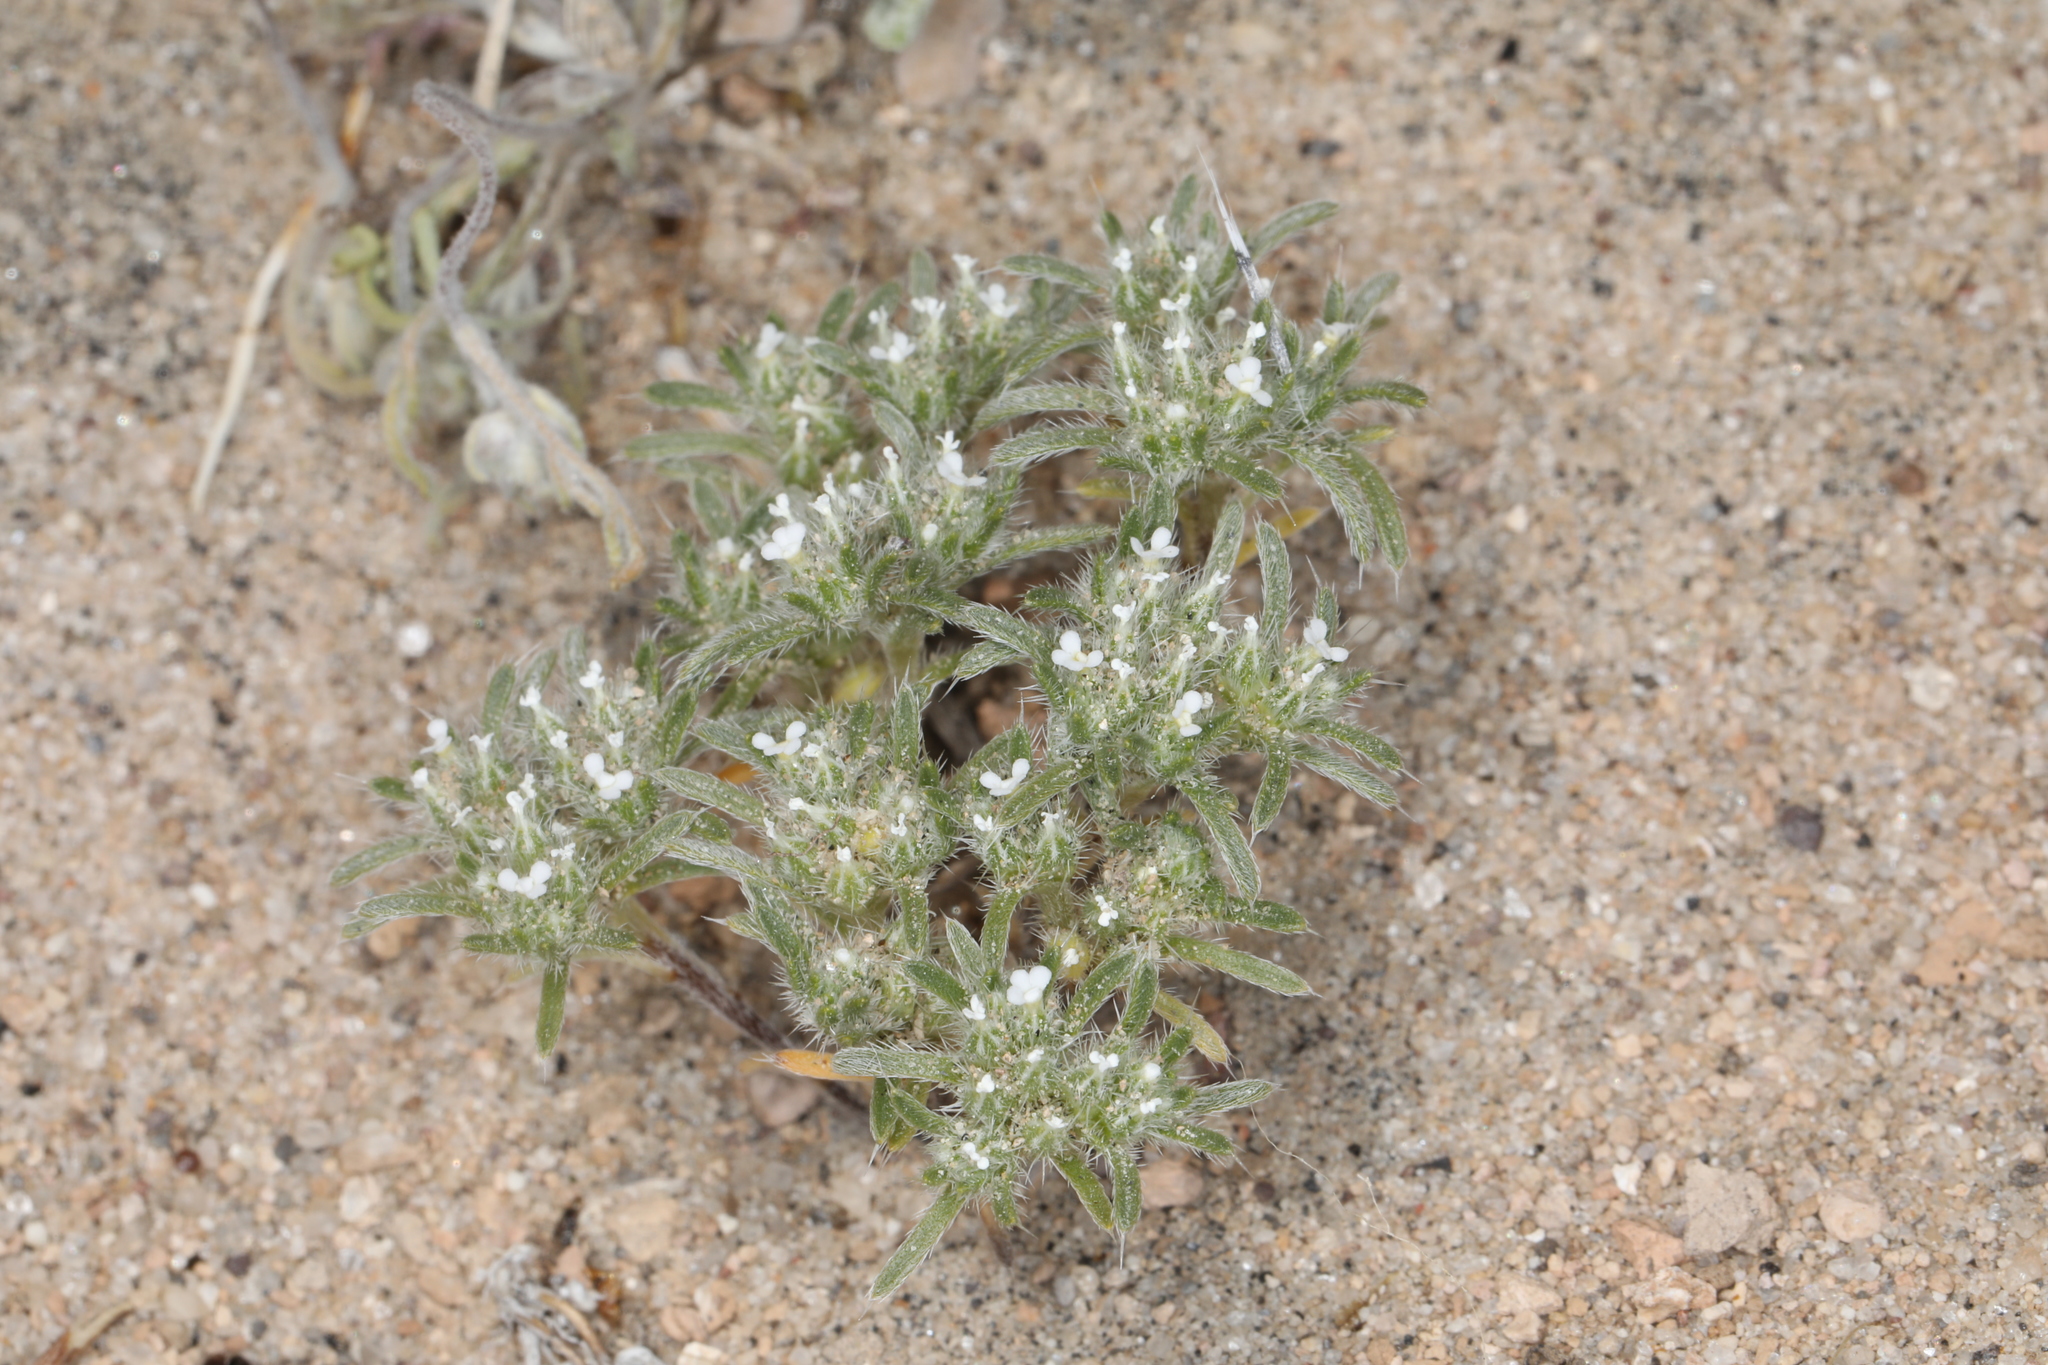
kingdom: Plantae
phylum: Tracheophyta
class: Magnoliopsida
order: Boraginales
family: Boraginaceae
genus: Greeneocharis
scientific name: Greeneocharis circumscissa
